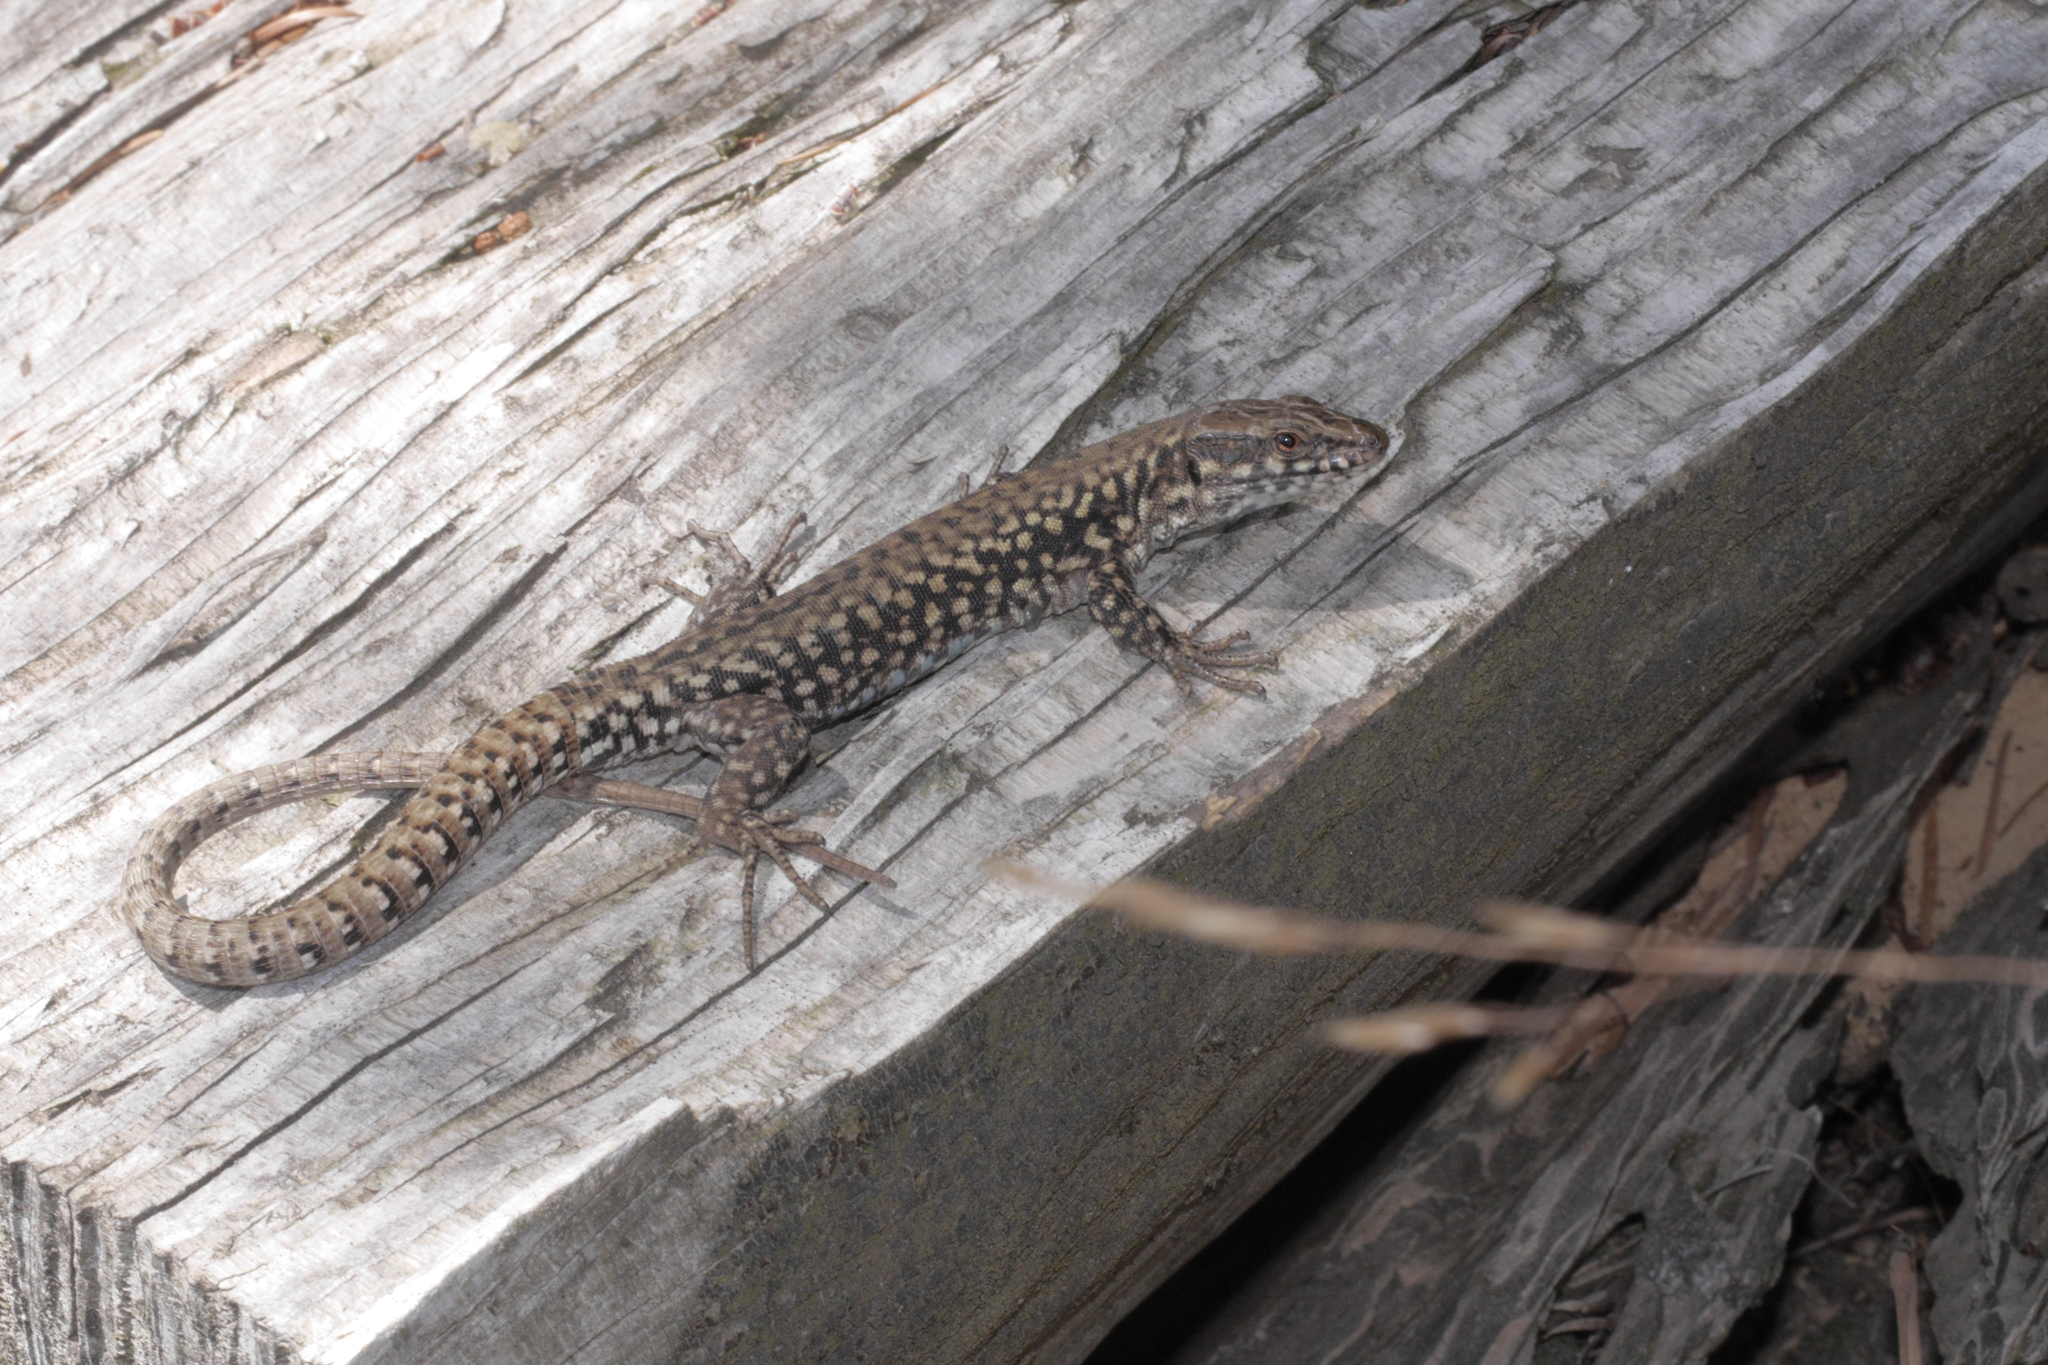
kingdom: Animalia
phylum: Chordata
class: Squamata
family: Lacertidae
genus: Podarcis
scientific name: Podarcis muralis
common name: Common wall lizard
